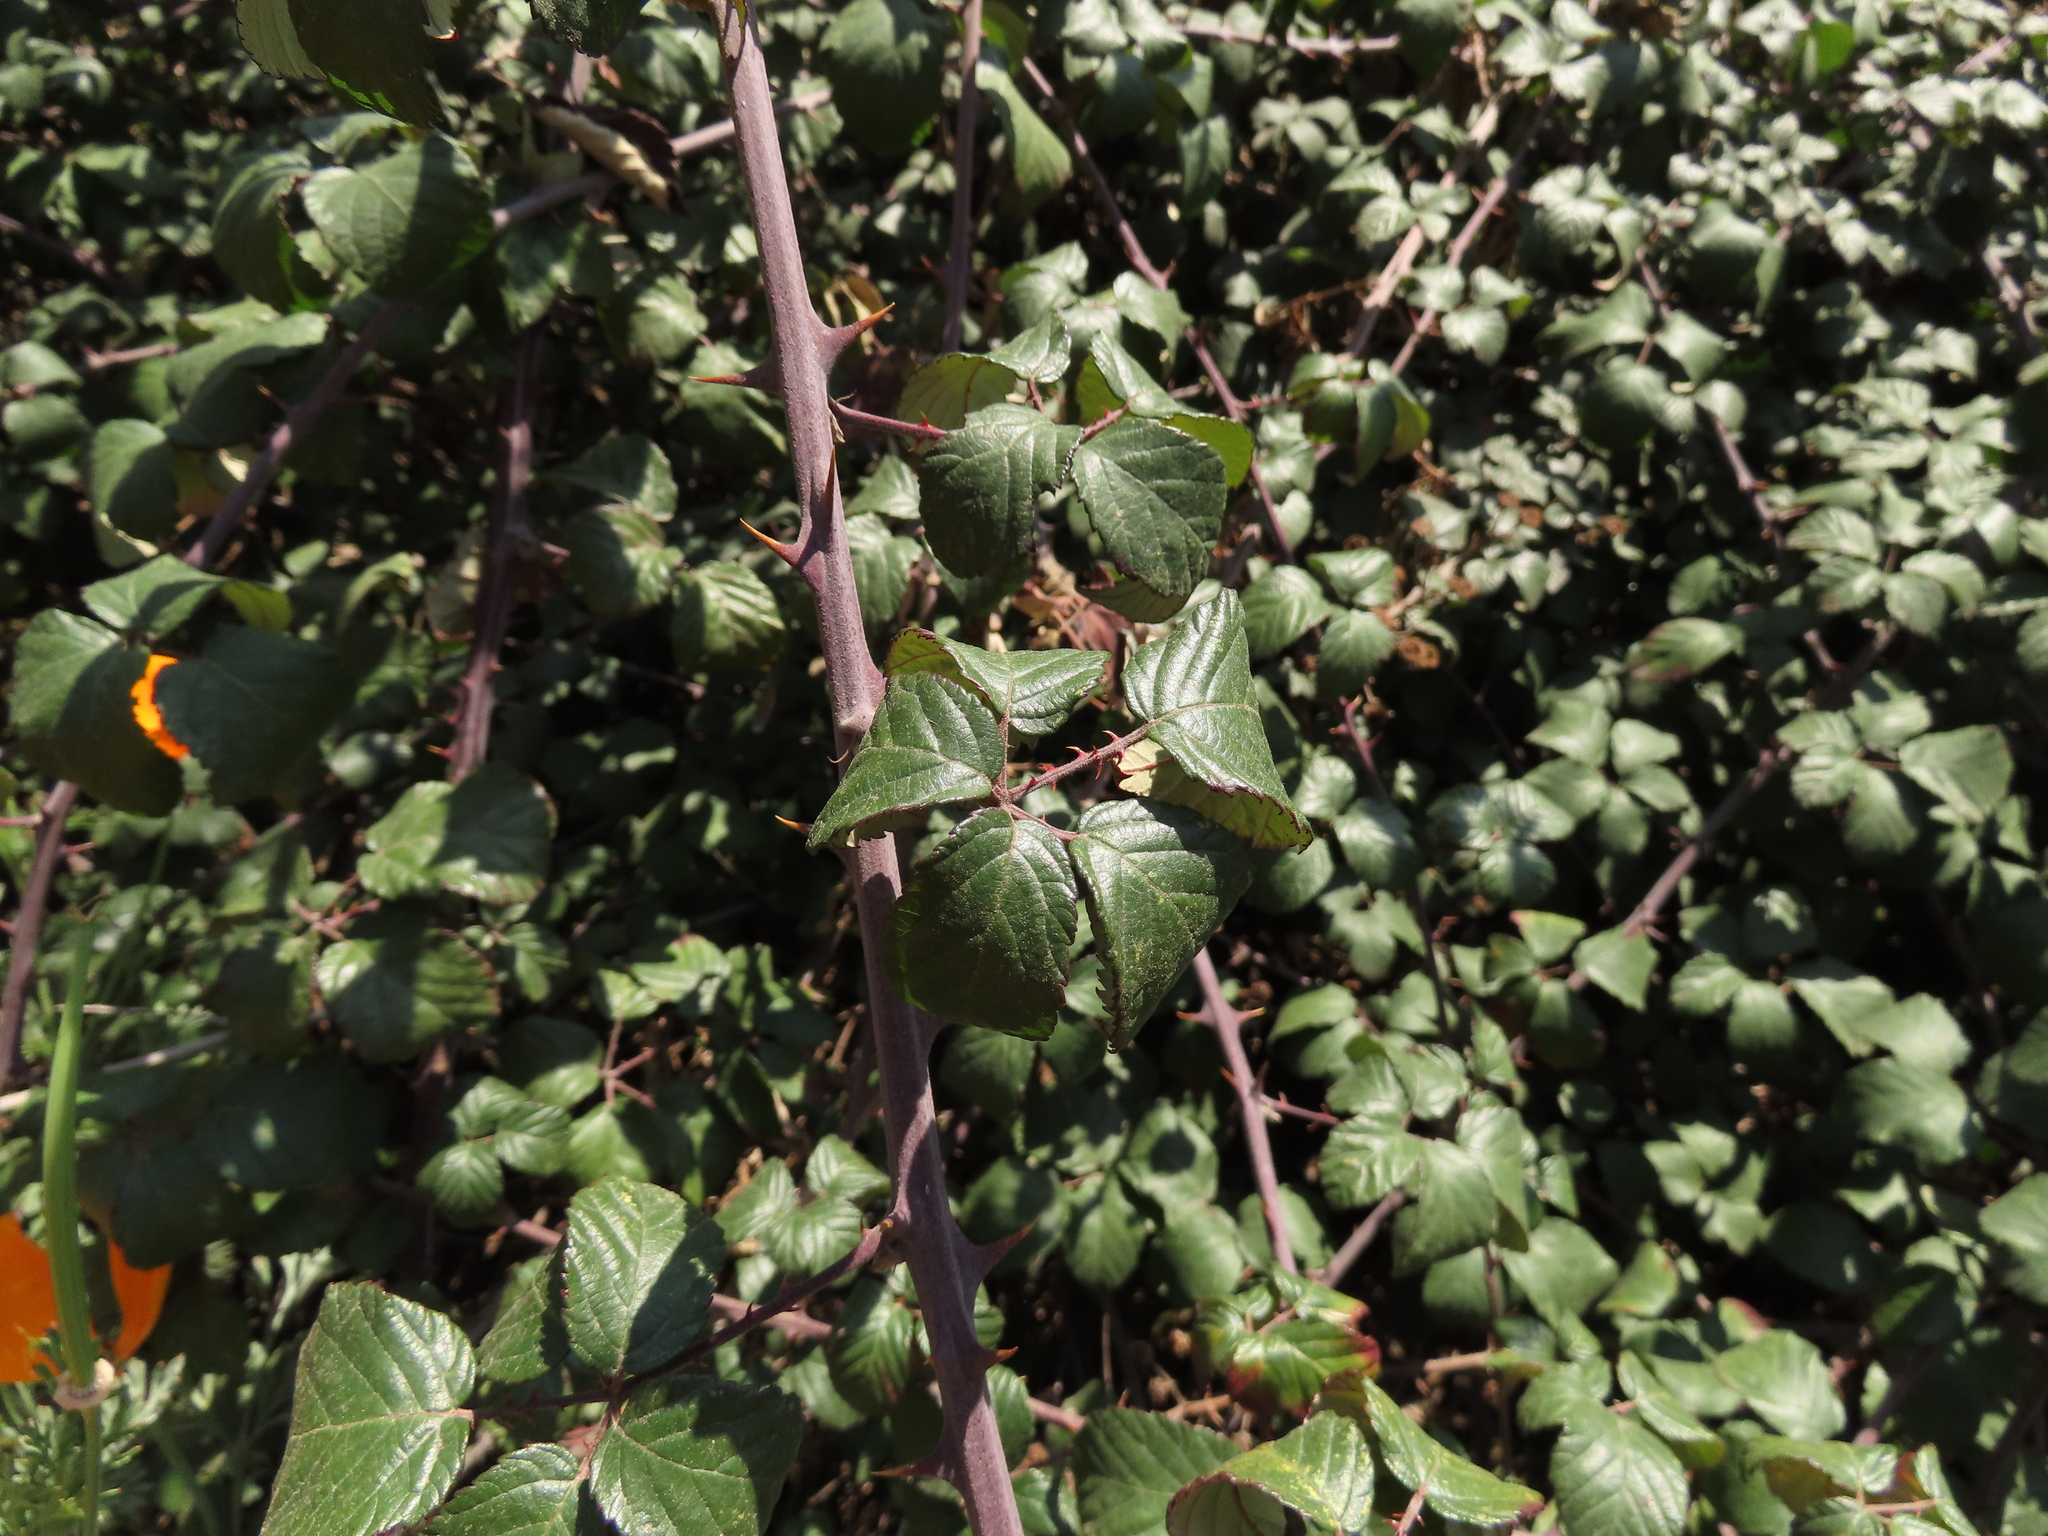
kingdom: Plantae
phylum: Tracheophyta
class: Magnoliopsida
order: Rosales
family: Rosaceae
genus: Rubus
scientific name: Rubus ulmifolius
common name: Elmleaf blackberry
